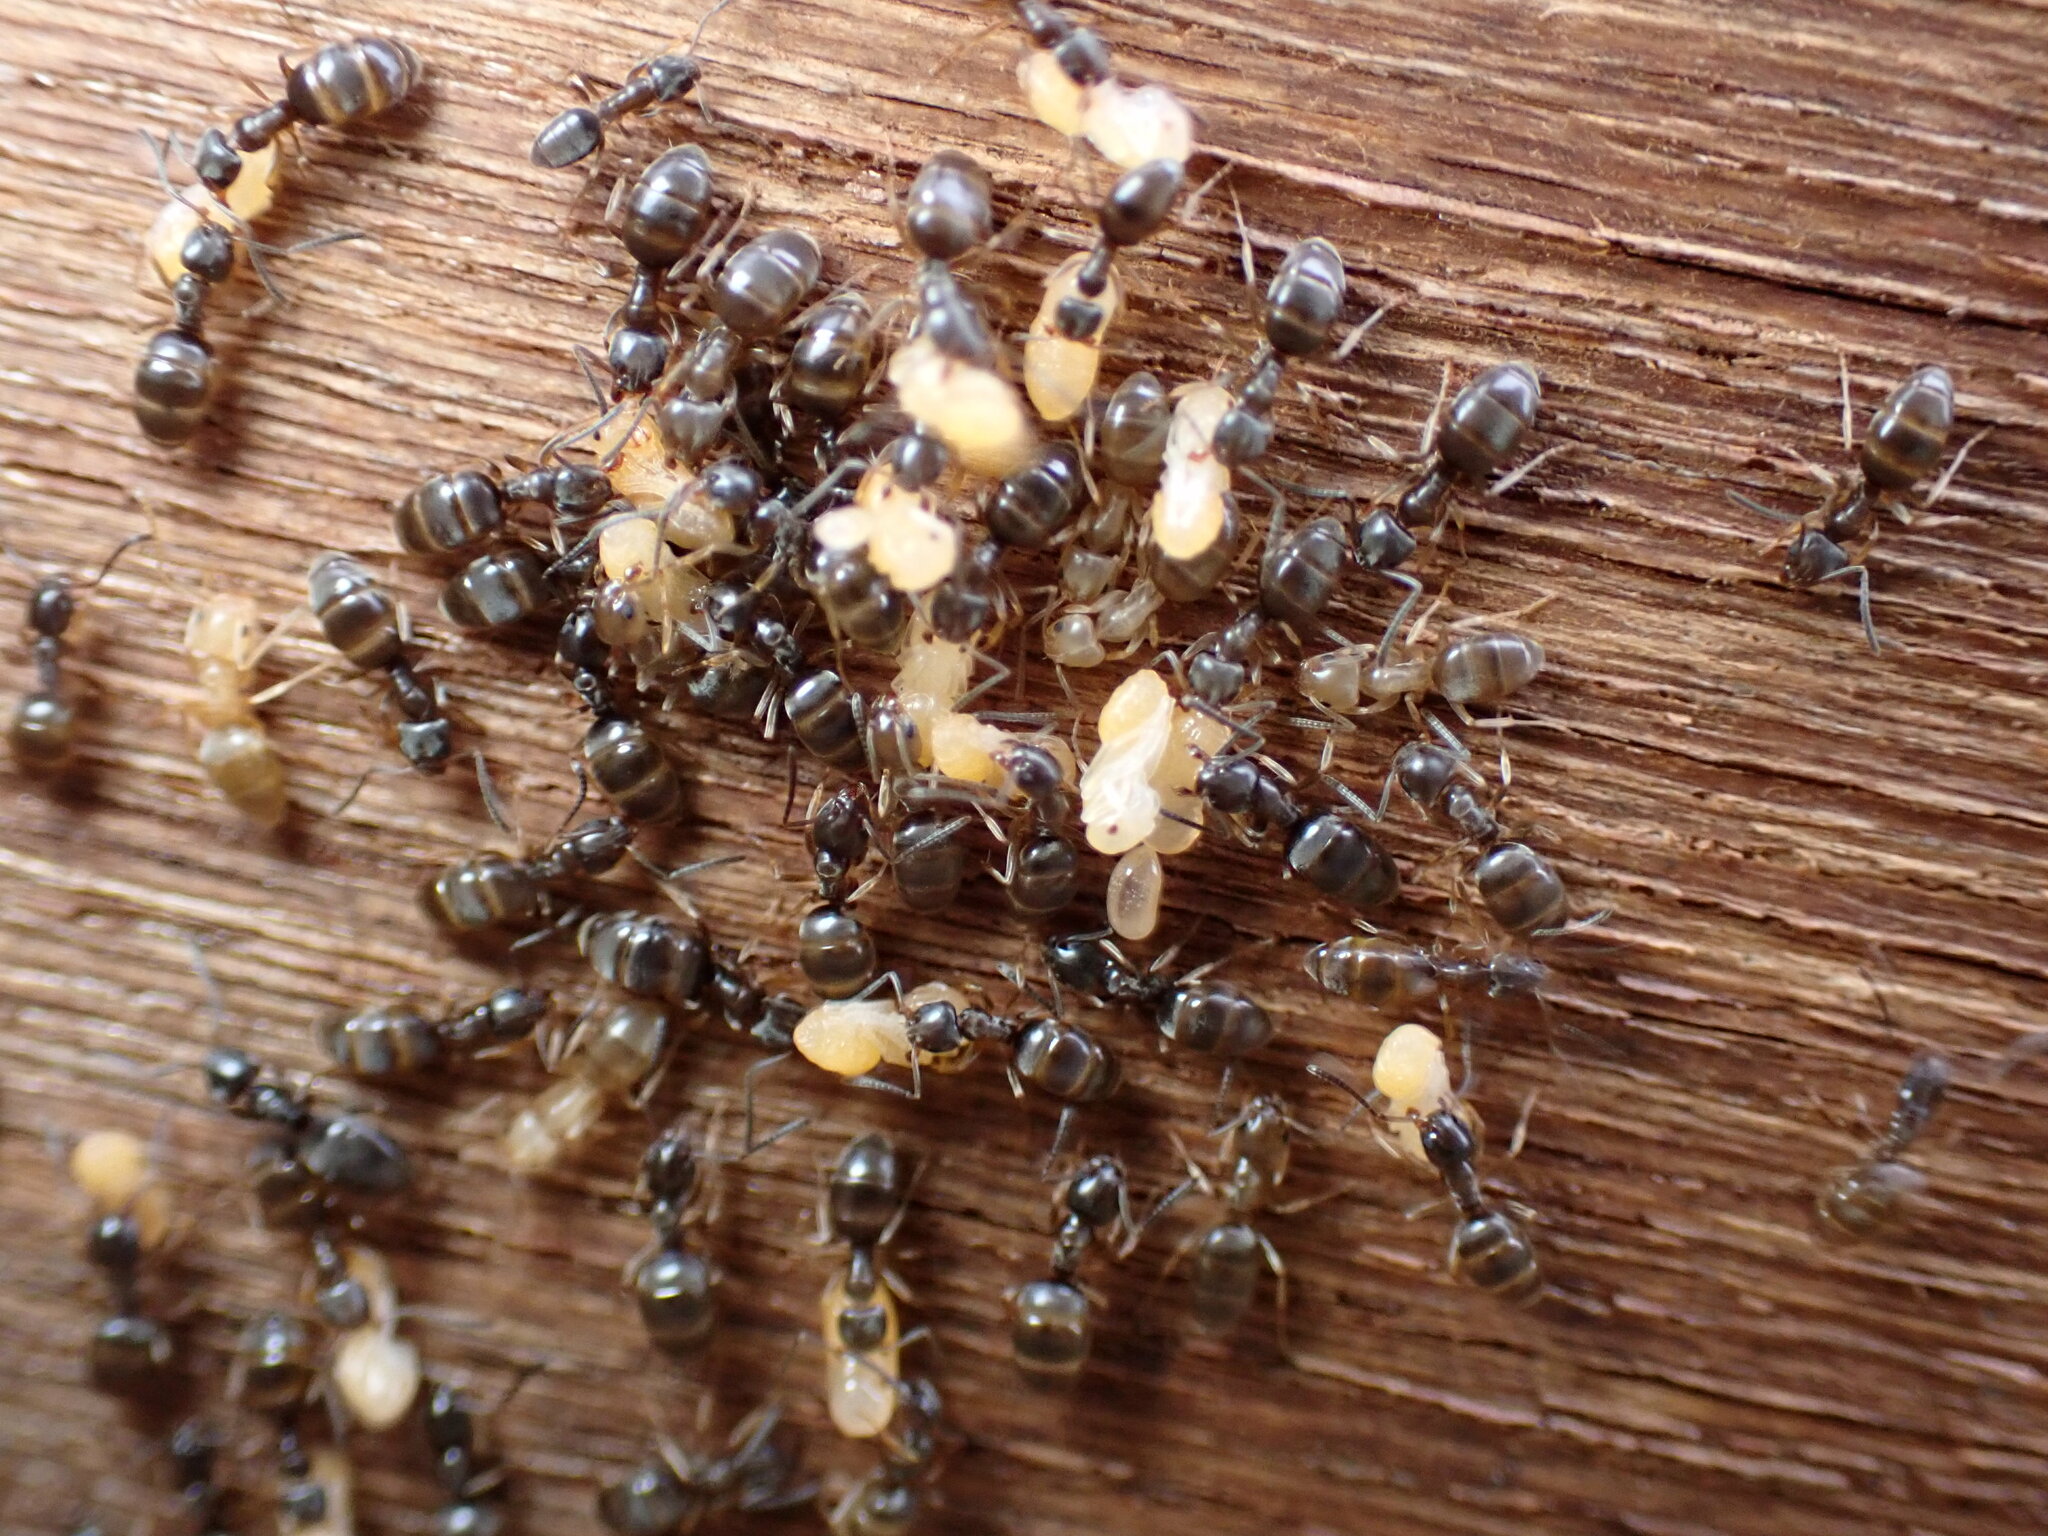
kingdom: Animalia
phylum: Arthropoda
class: Insecta
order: Hymenoptera
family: Formicidae
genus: Tapinoma
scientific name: Tapinoma sessile
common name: Odorous house ant
